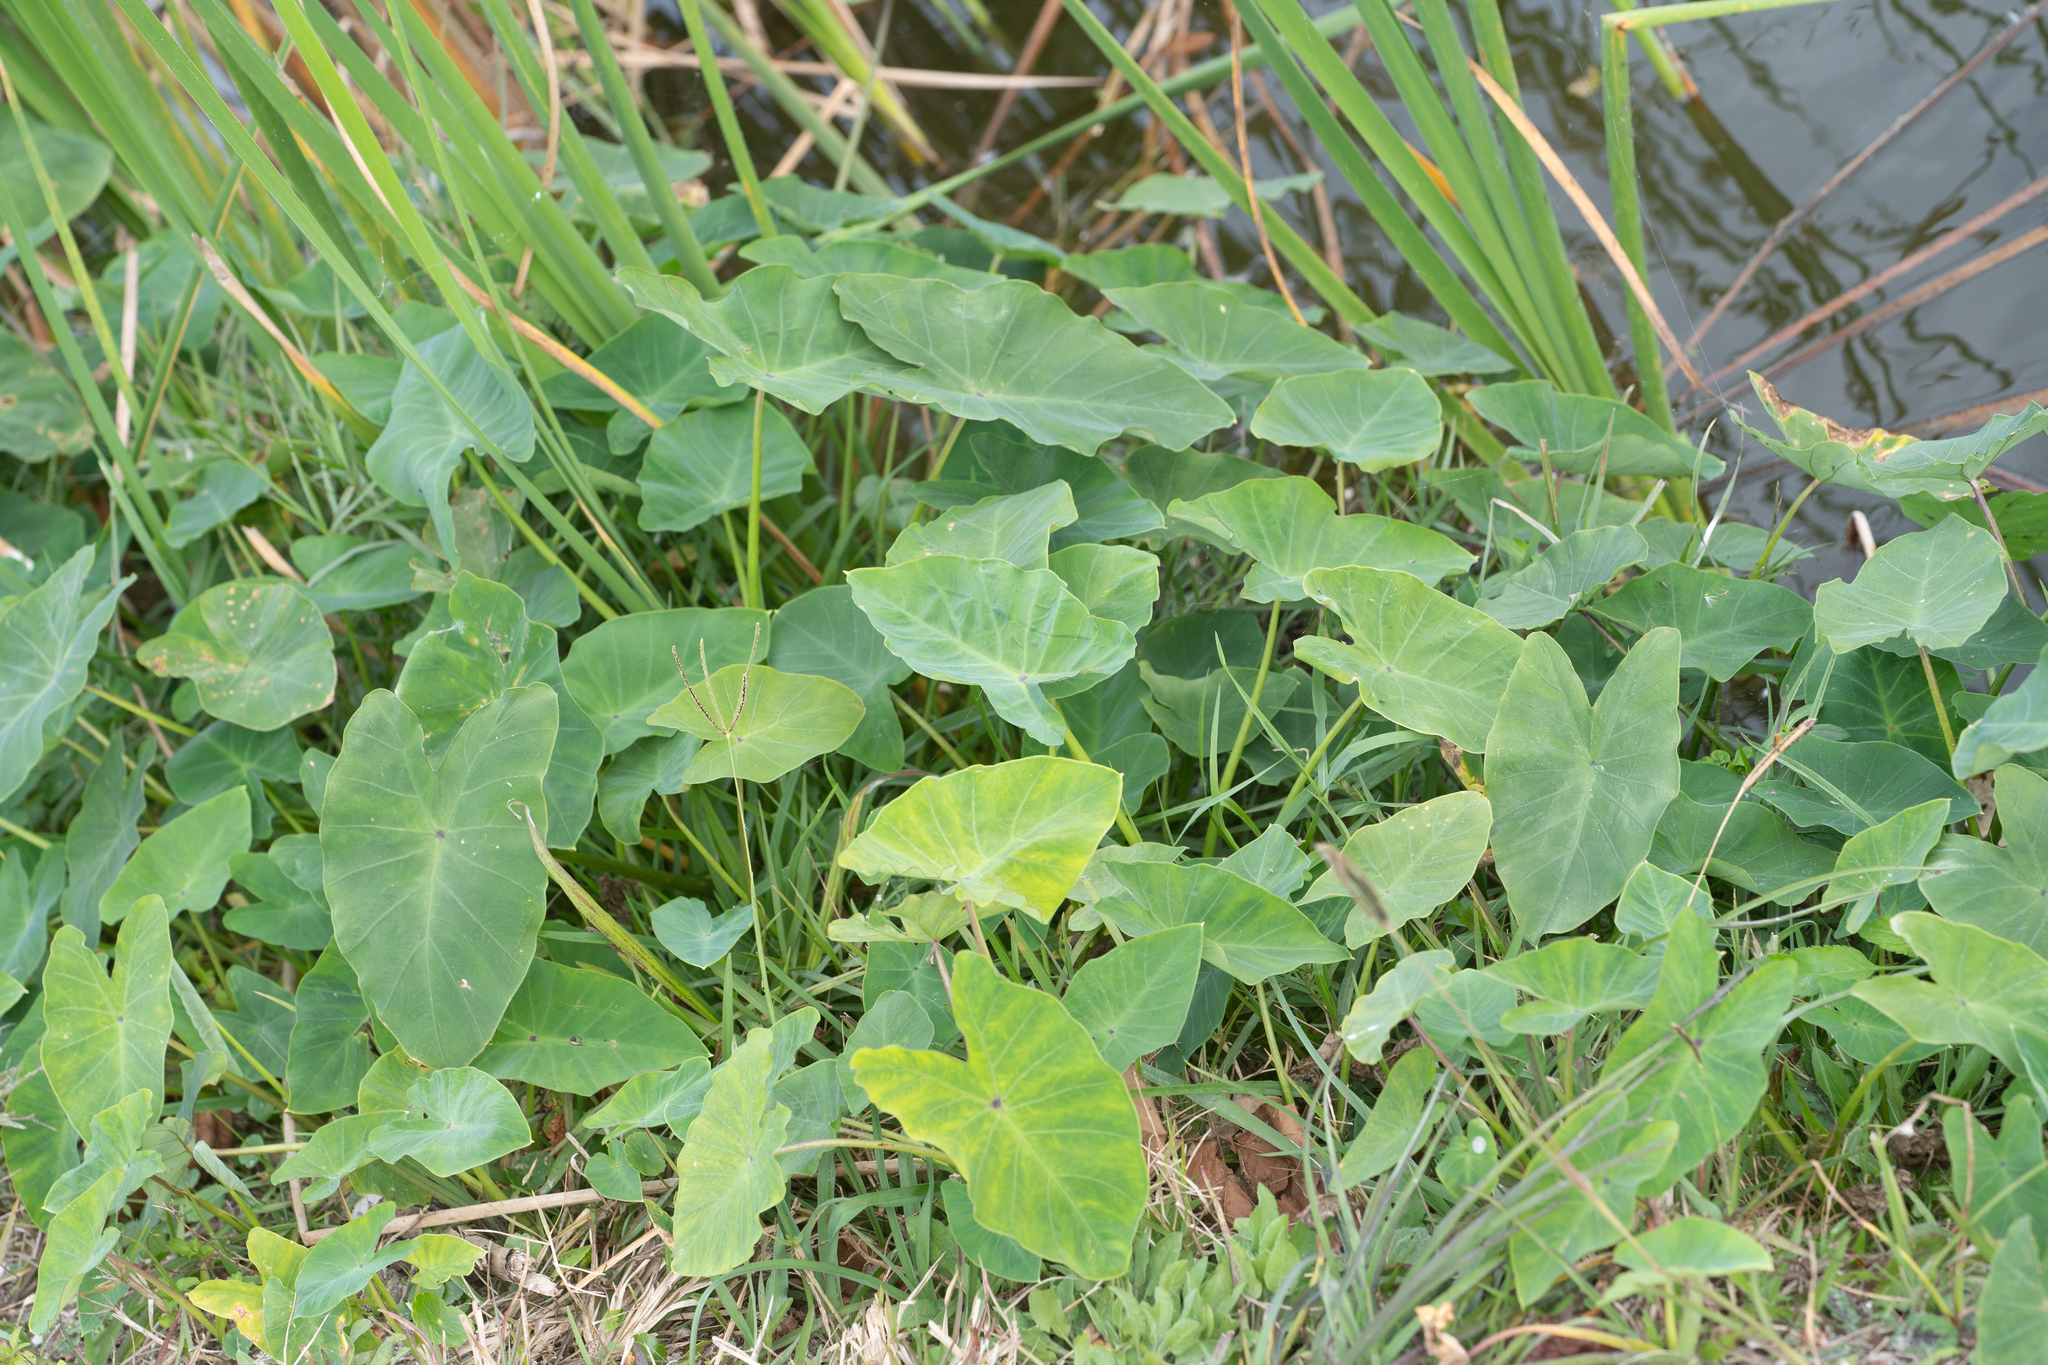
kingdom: Plantae
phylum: Tracheophyta
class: Liliopsida
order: Alismatales
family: Araceae
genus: Colocasia
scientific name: Colocasia esculenta
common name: Taro
